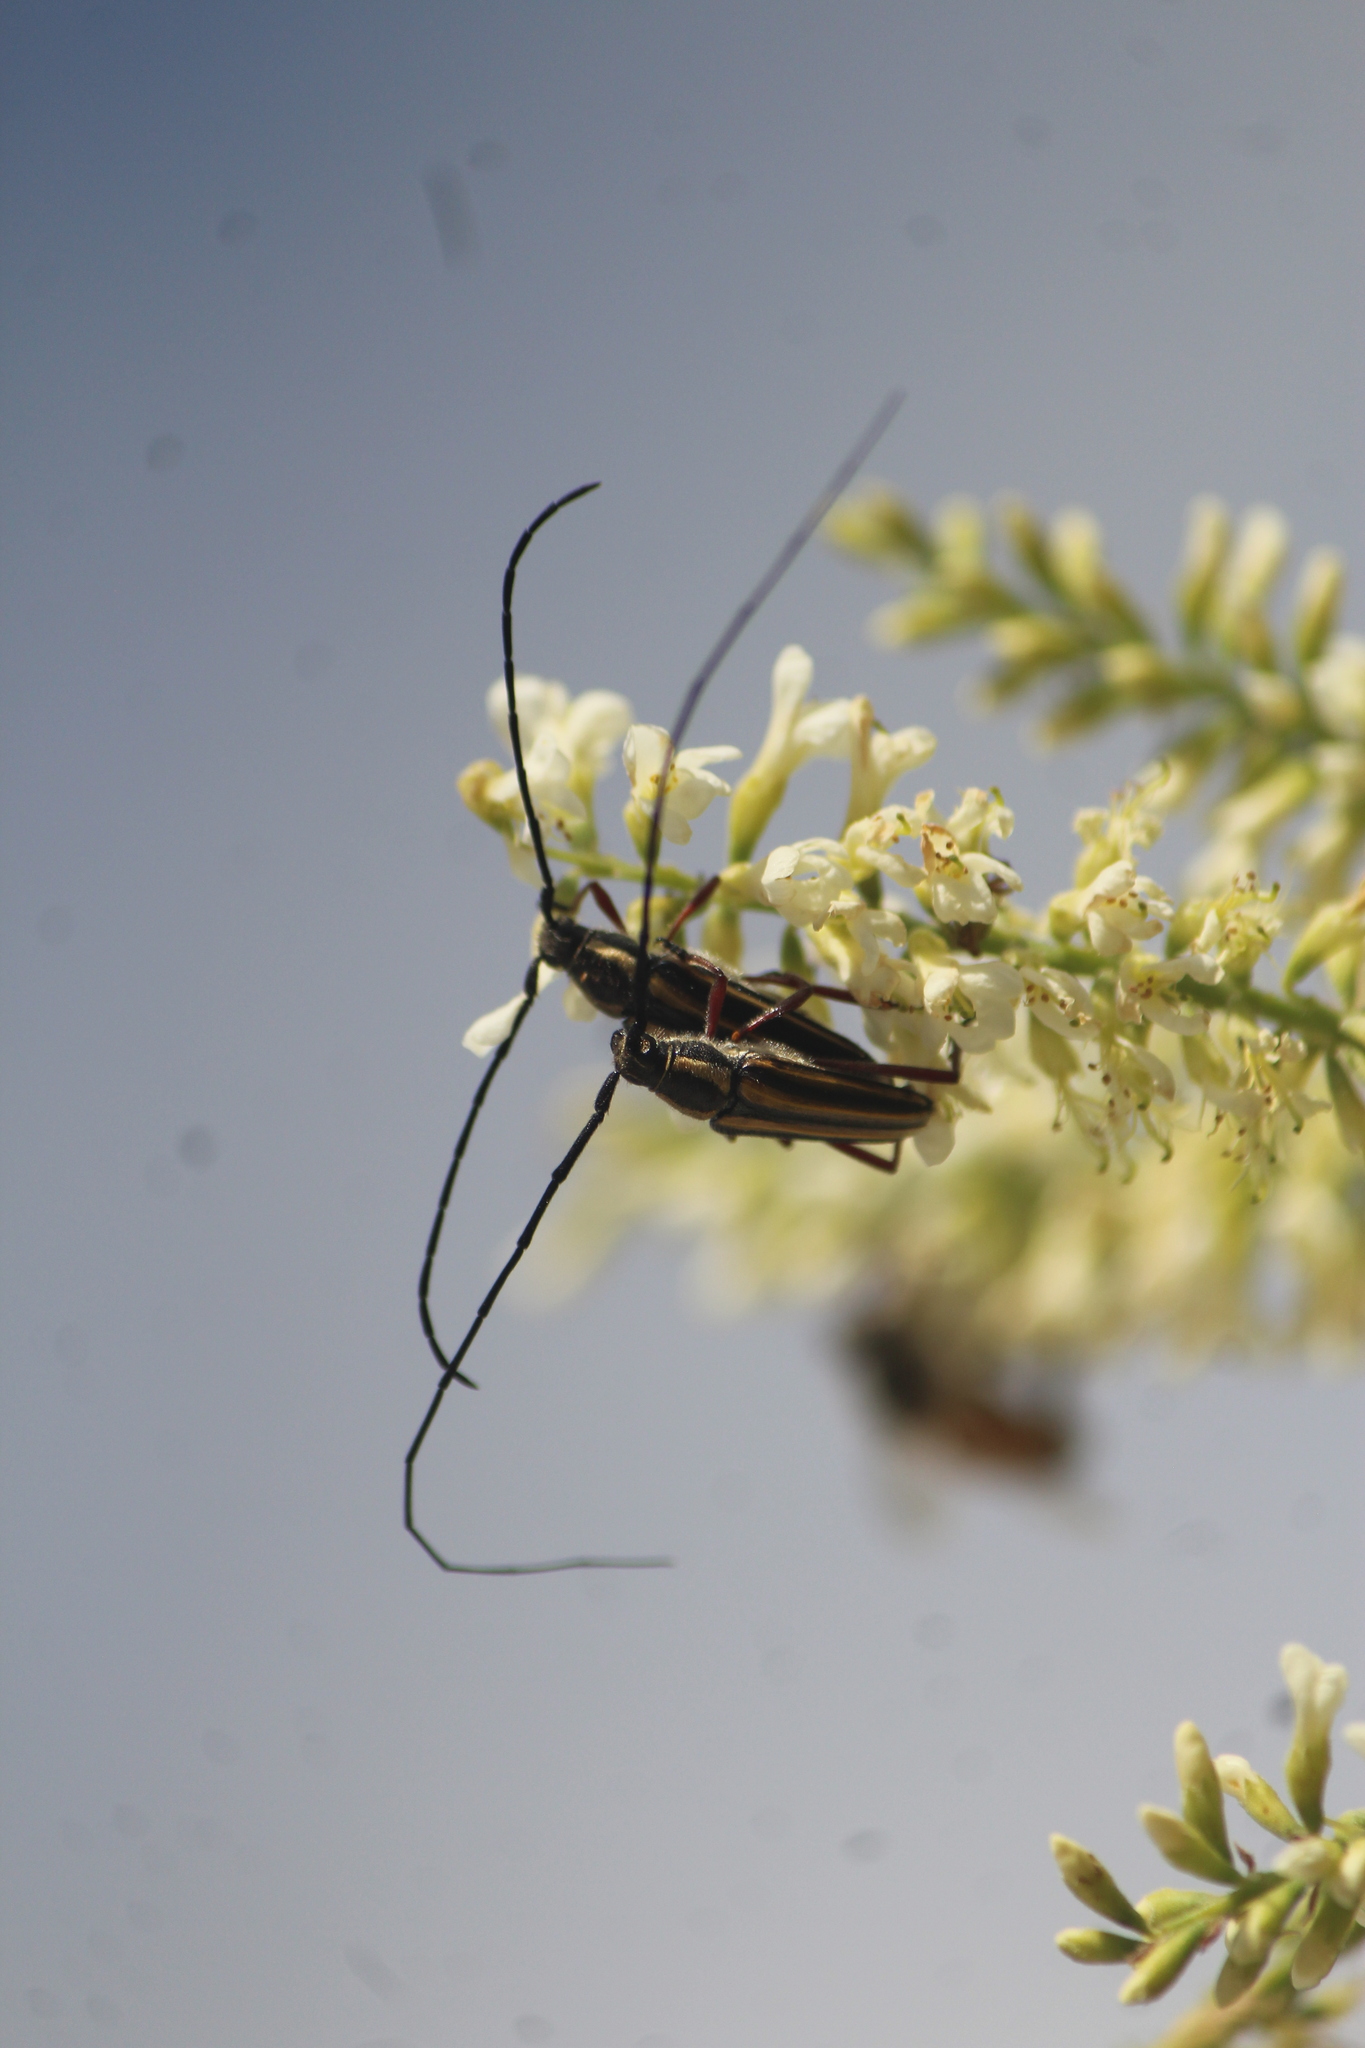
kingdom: Animalia
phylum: Arthropoda
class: Insecta
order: Coleoptera
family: Cerambycidae
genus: Sphaenothecus
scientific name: Sphaenothecus bilineatus
